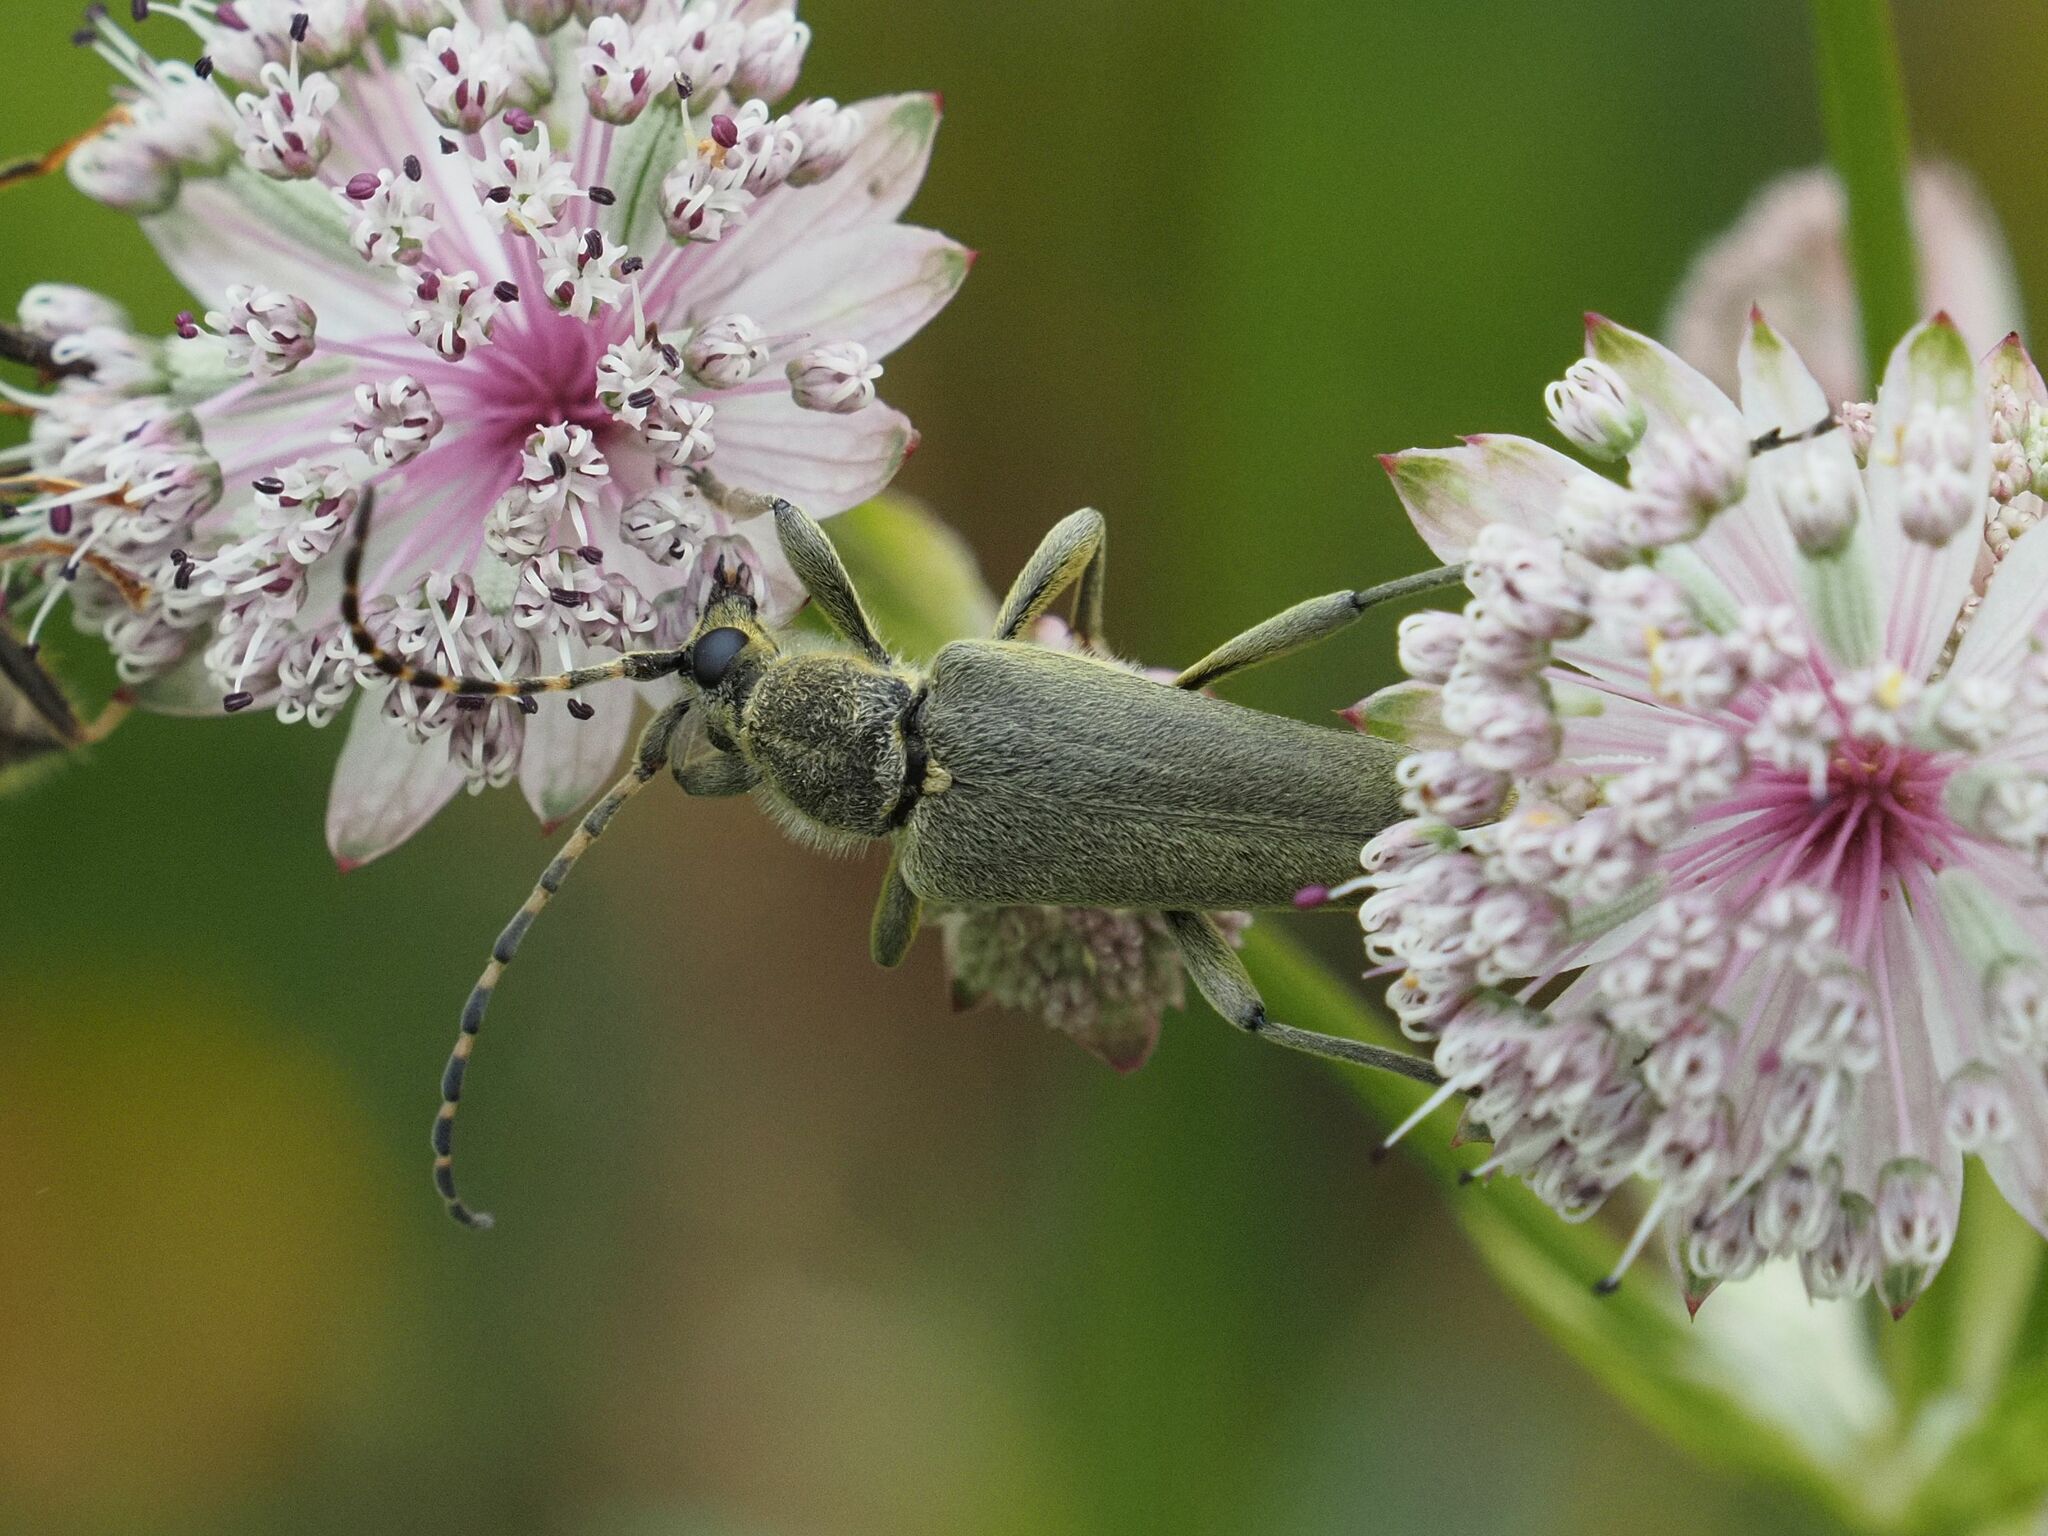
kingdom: Animalia
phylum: Arthropoda
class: Insecta
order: Coleoptera
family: Cerambycidae
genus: Lepturobosca
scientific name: Lepturobosca virens
